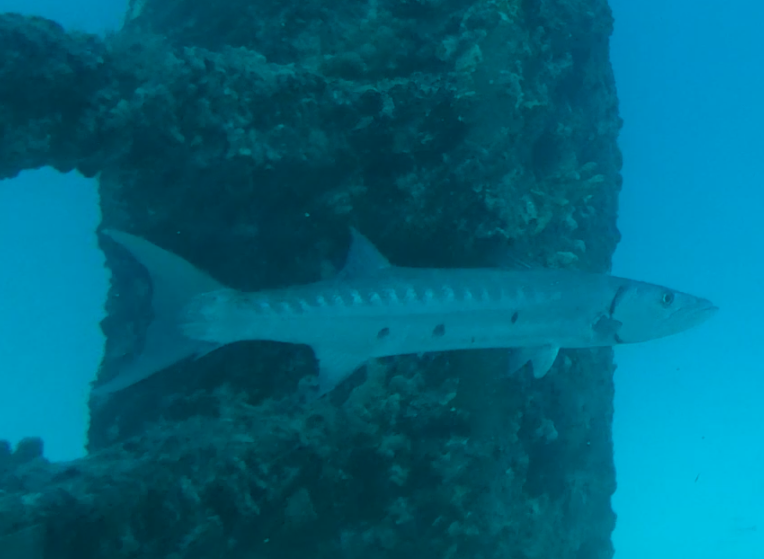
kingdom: Animalia
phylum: Chordata
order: Perciformes
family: Sphyraenidae
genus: Sphyraena
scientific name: Sphyraena barracuda
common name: Great barracuda
